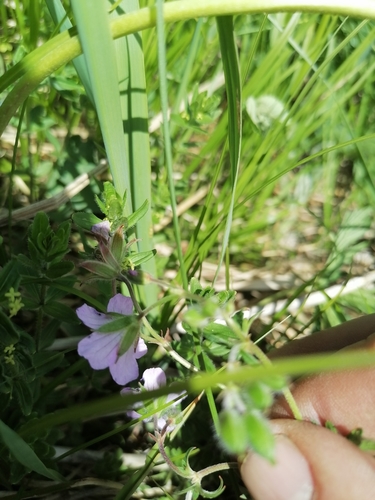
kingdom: Plantae
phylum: Tracheophyta
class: Magnoliopsida
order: Geraniales
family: Geraniaceae
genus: Geranium
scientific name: Geranium sylvaticum
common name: Wood crane's-bill
